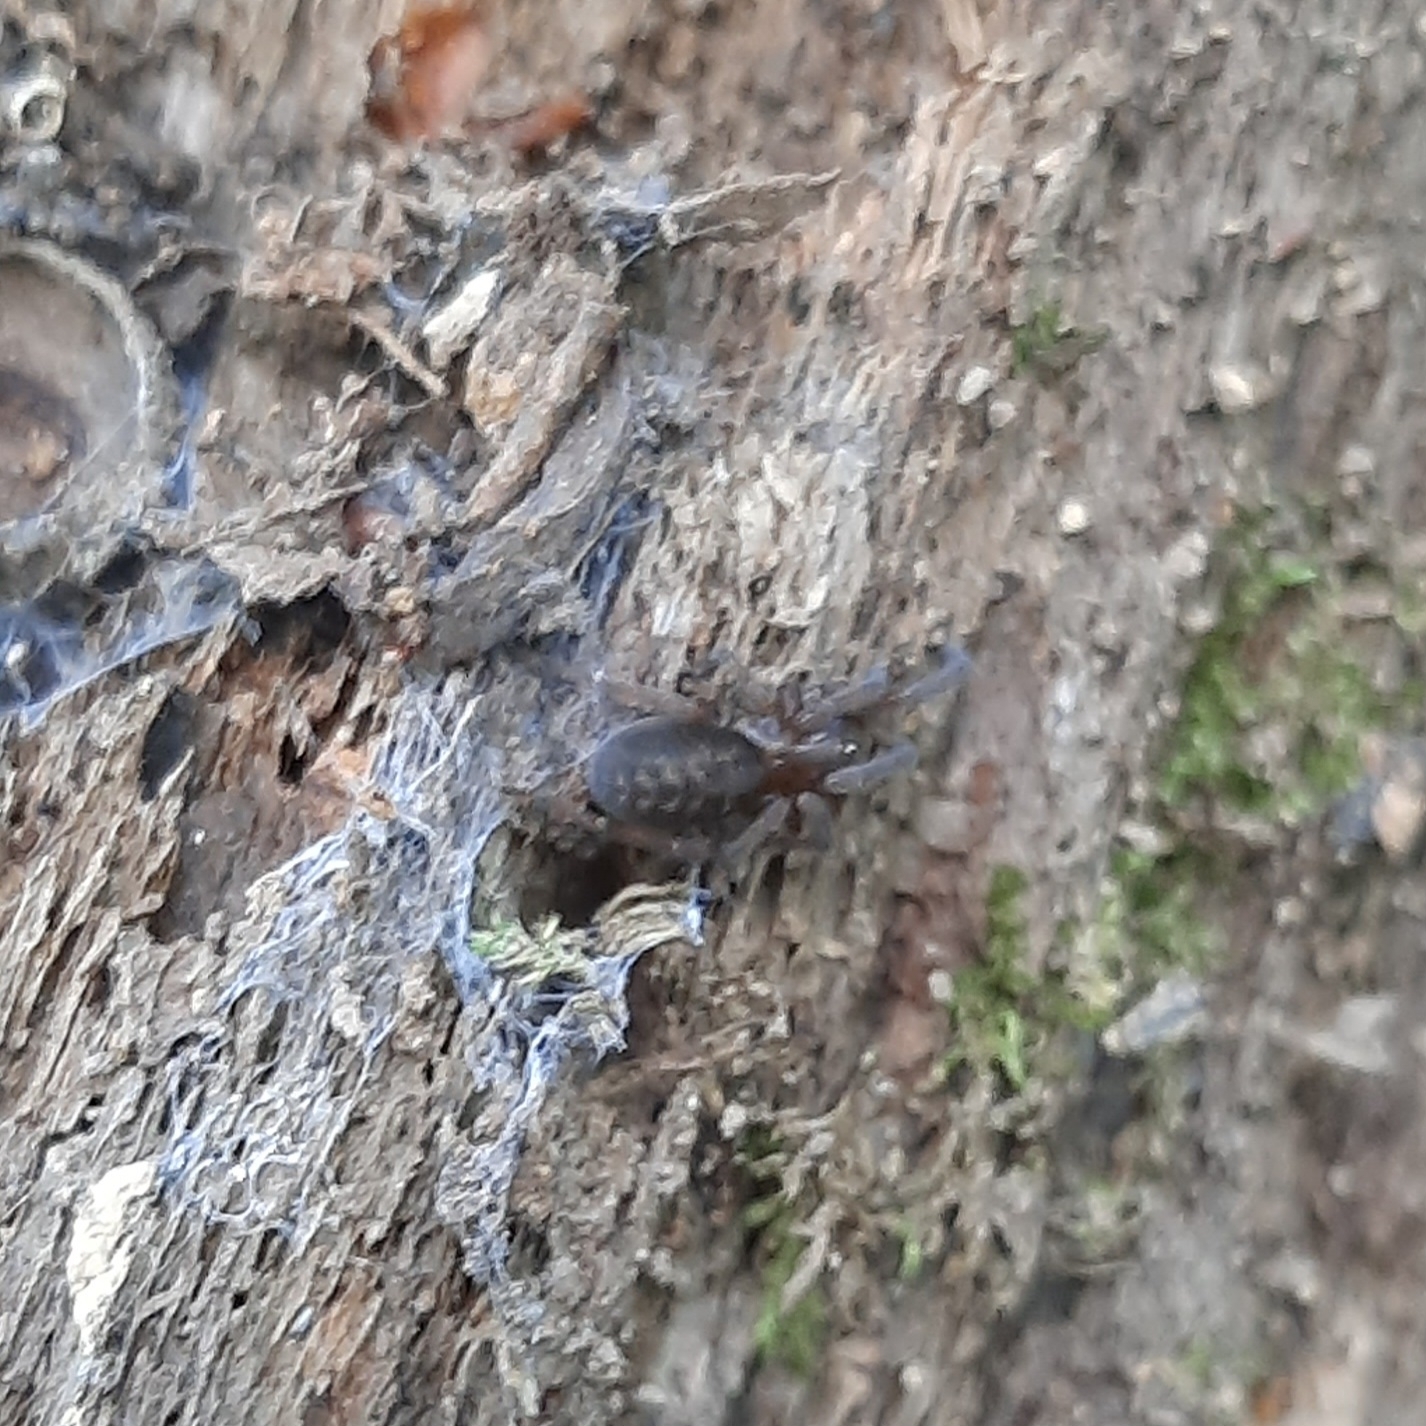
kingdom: Animalia
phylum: Arthropoda
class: Arachnida
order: Araneae
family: Amaurobiidae
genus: Amaurobius
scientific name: Amaurobius
